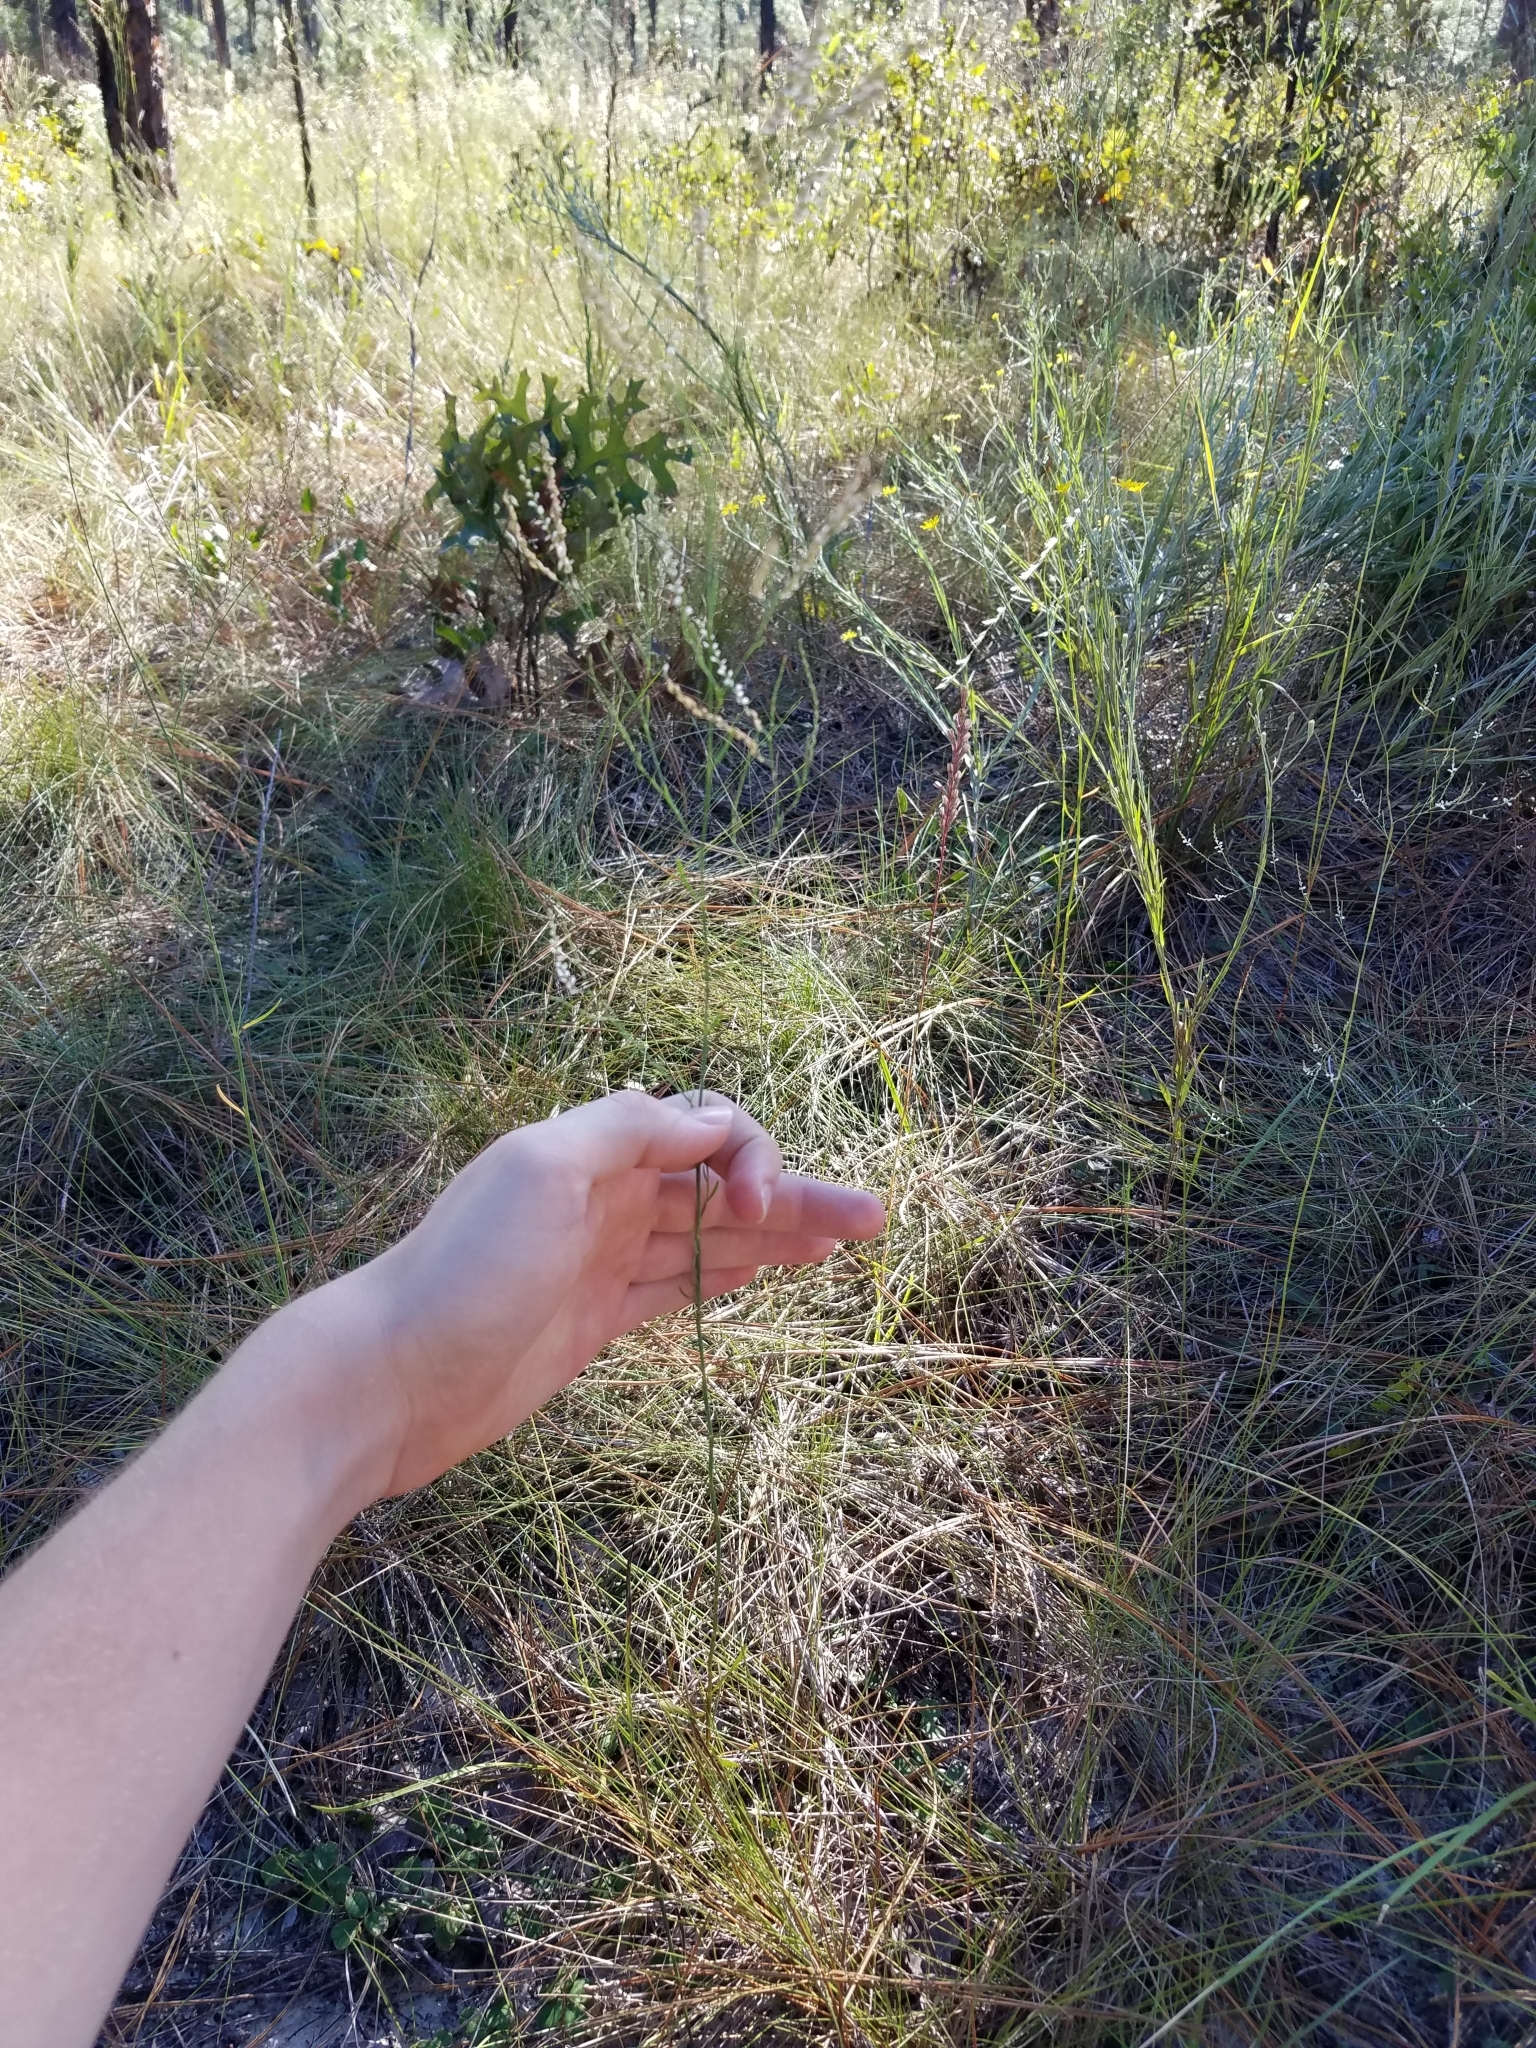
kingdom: Plantae
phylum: Tracheophyta
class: Magnoliopsida
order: Caryophyllales
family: Polygonaceae
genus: Polygonella
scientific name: Polygonella gracilis
